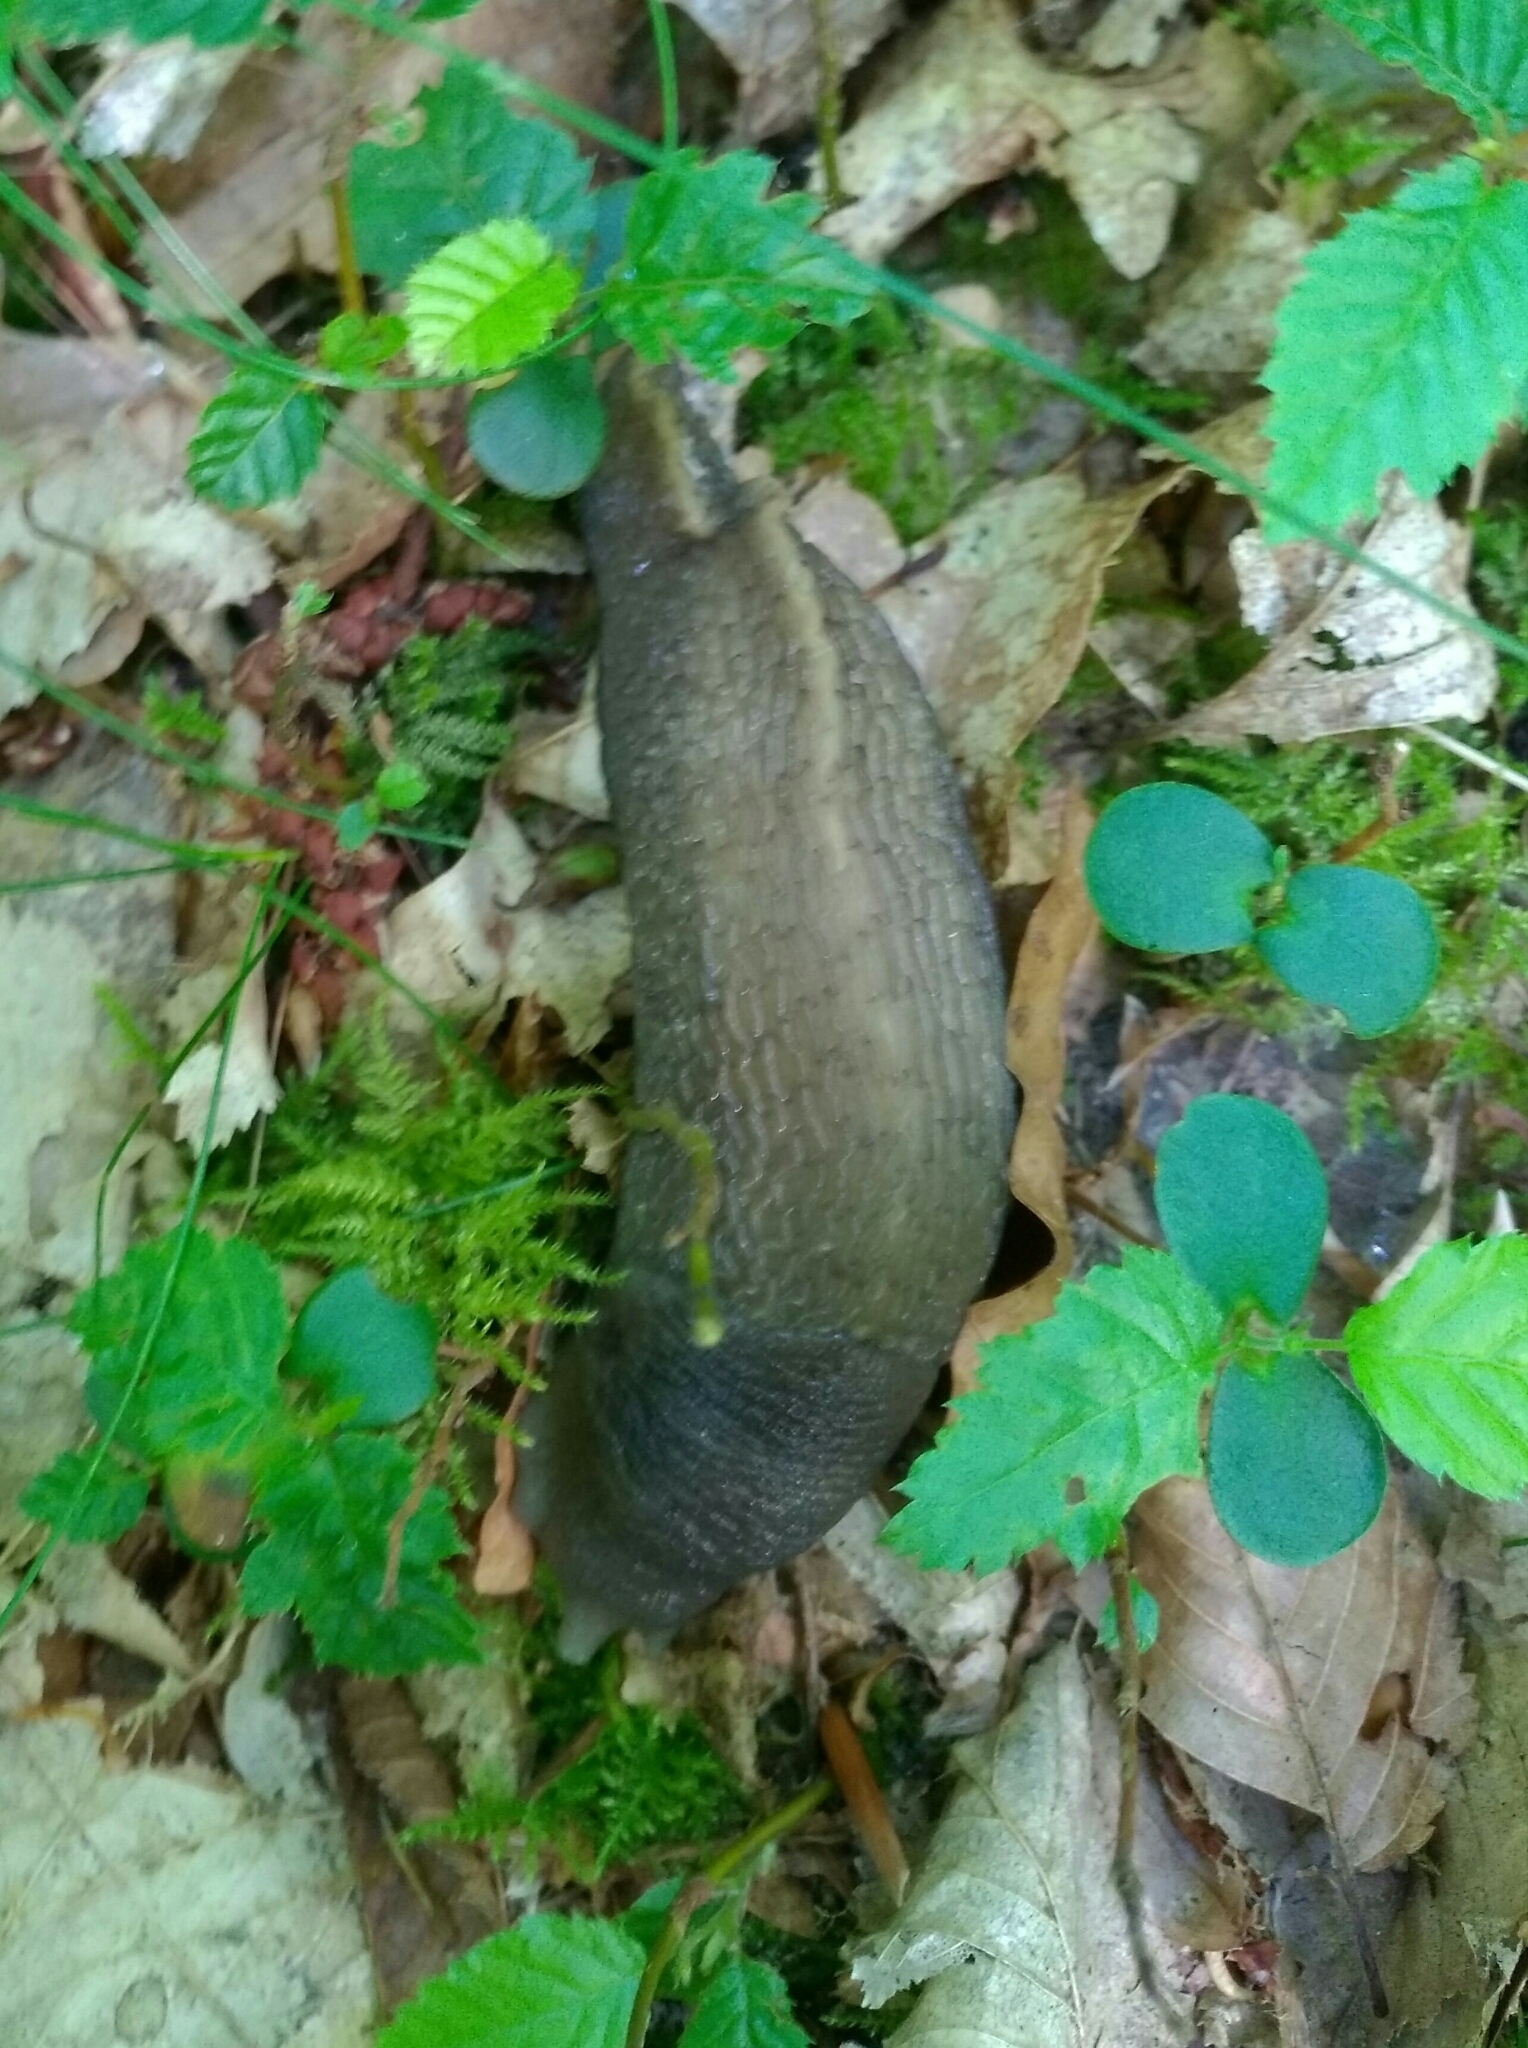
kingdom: Animalia
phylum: Mollusca
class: Gastropoda
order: Stylommatophora
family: Limacidae
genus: Limax
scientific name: Limax cinereoniger
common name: Ash-black slug
